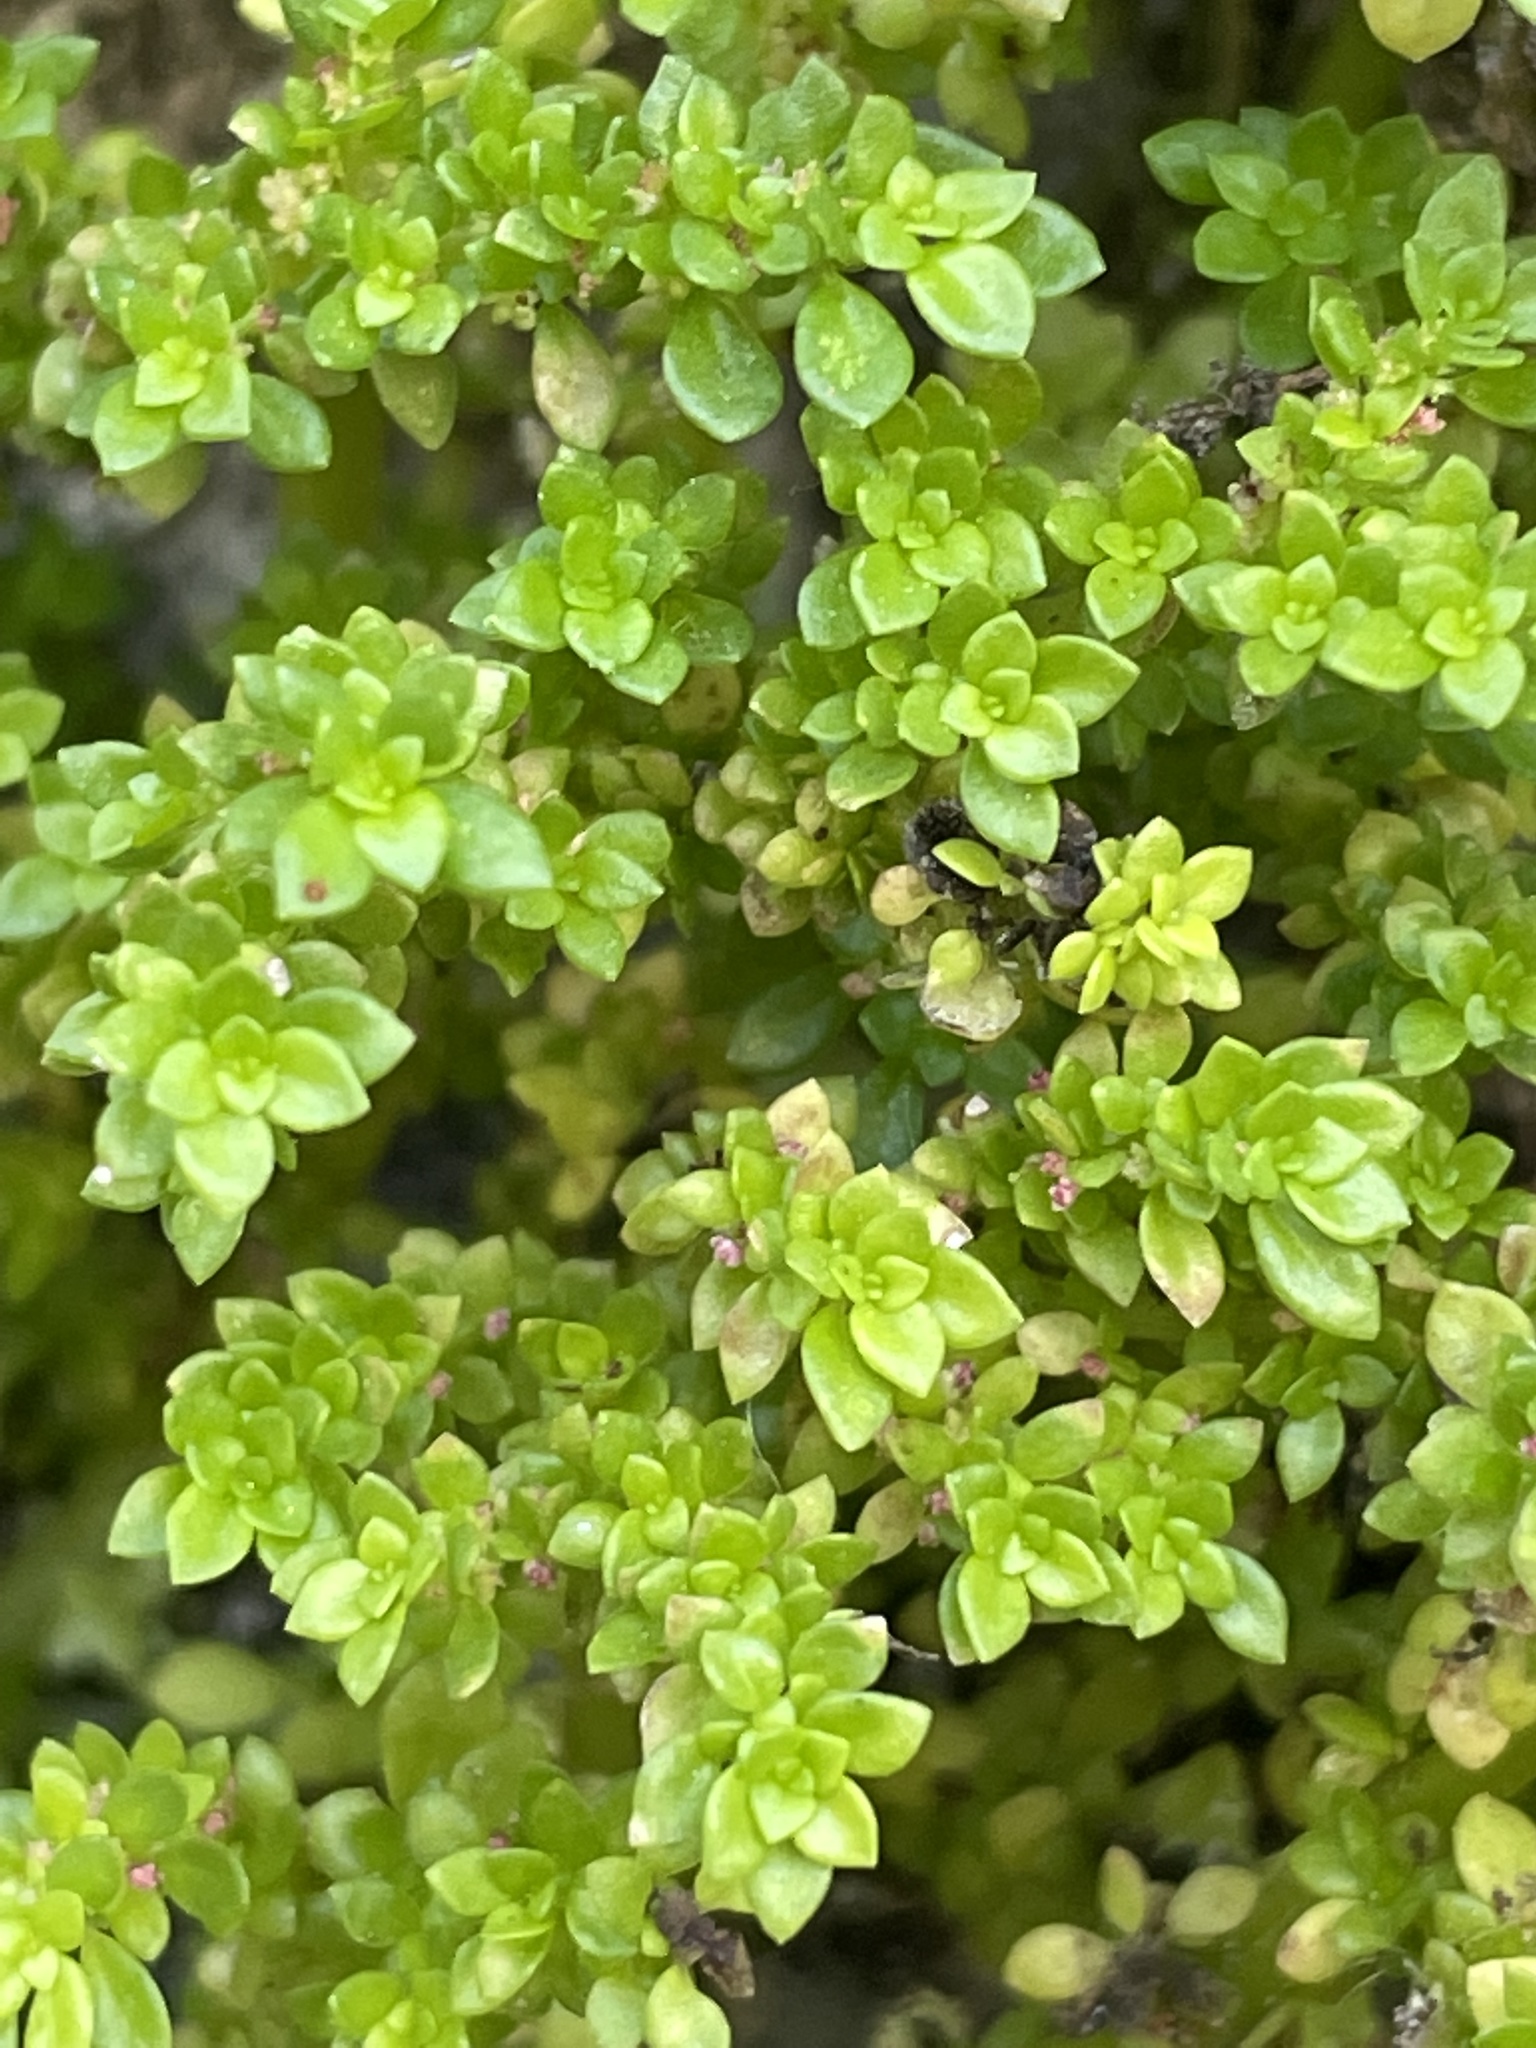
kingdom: Plantae
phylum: Tracheophyta
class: Magnoliopsida
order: Rosales
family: Urticaceae
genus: Pilea
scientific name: Pilea microphylla
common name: Artillery-plant
